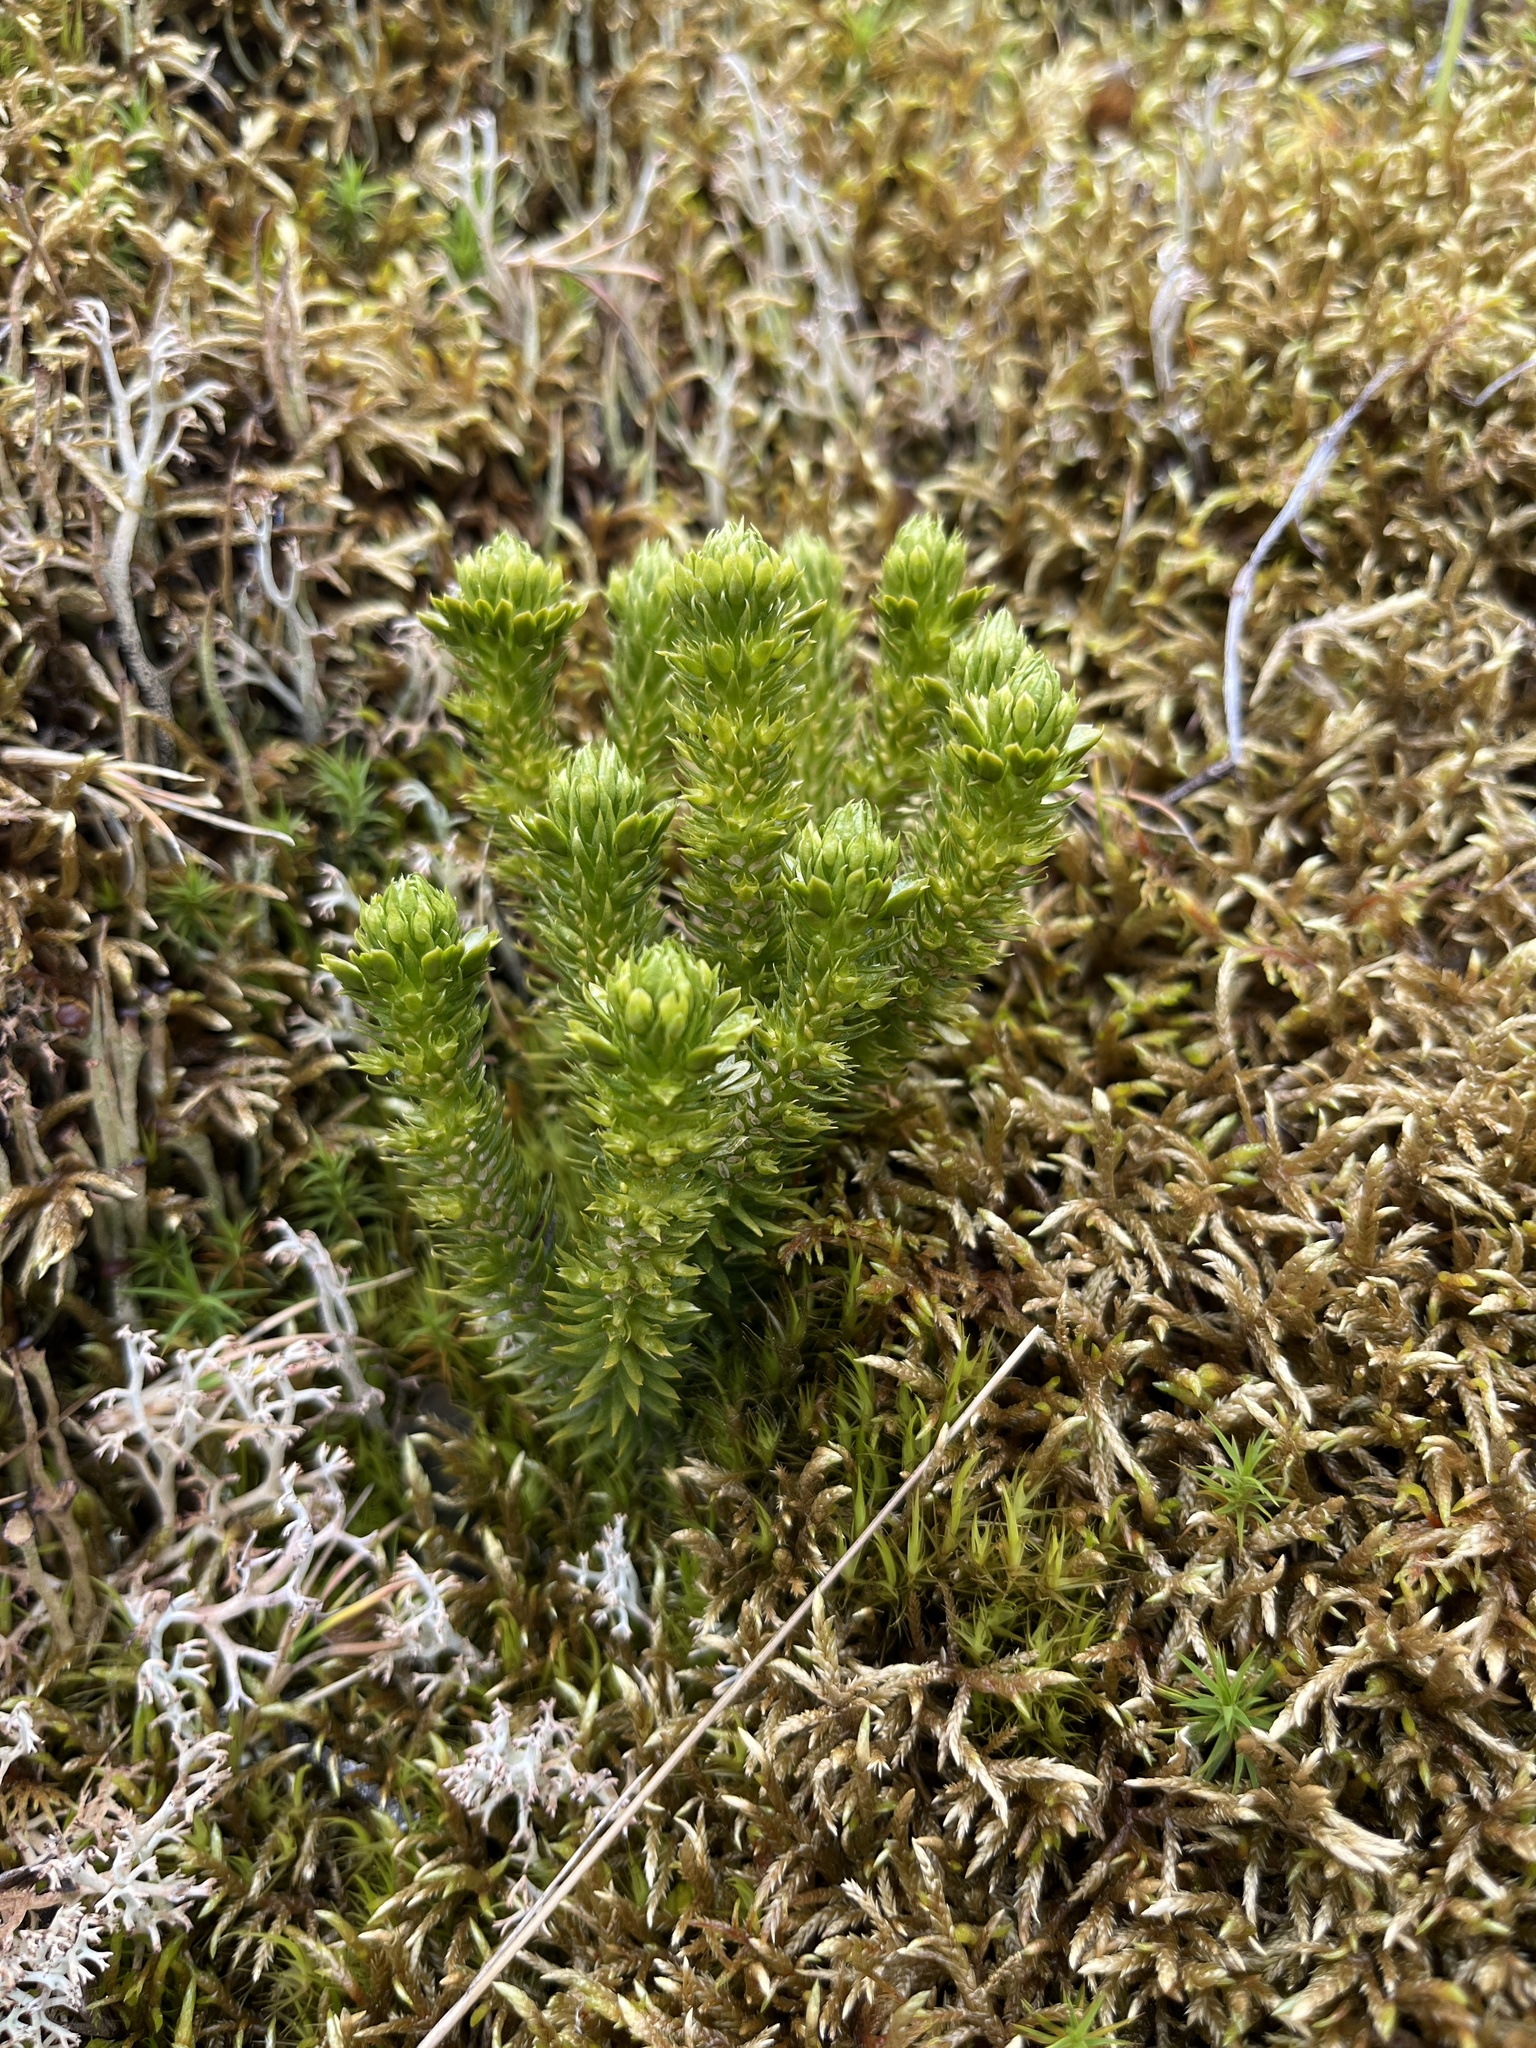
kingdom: Plantae
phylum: Tracheophyta
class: Lycopodiopsida
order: Lycopodiales
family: Lycopodiaceae
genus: Huperzia
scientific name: Huperzia selago
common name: Northern firmoss
